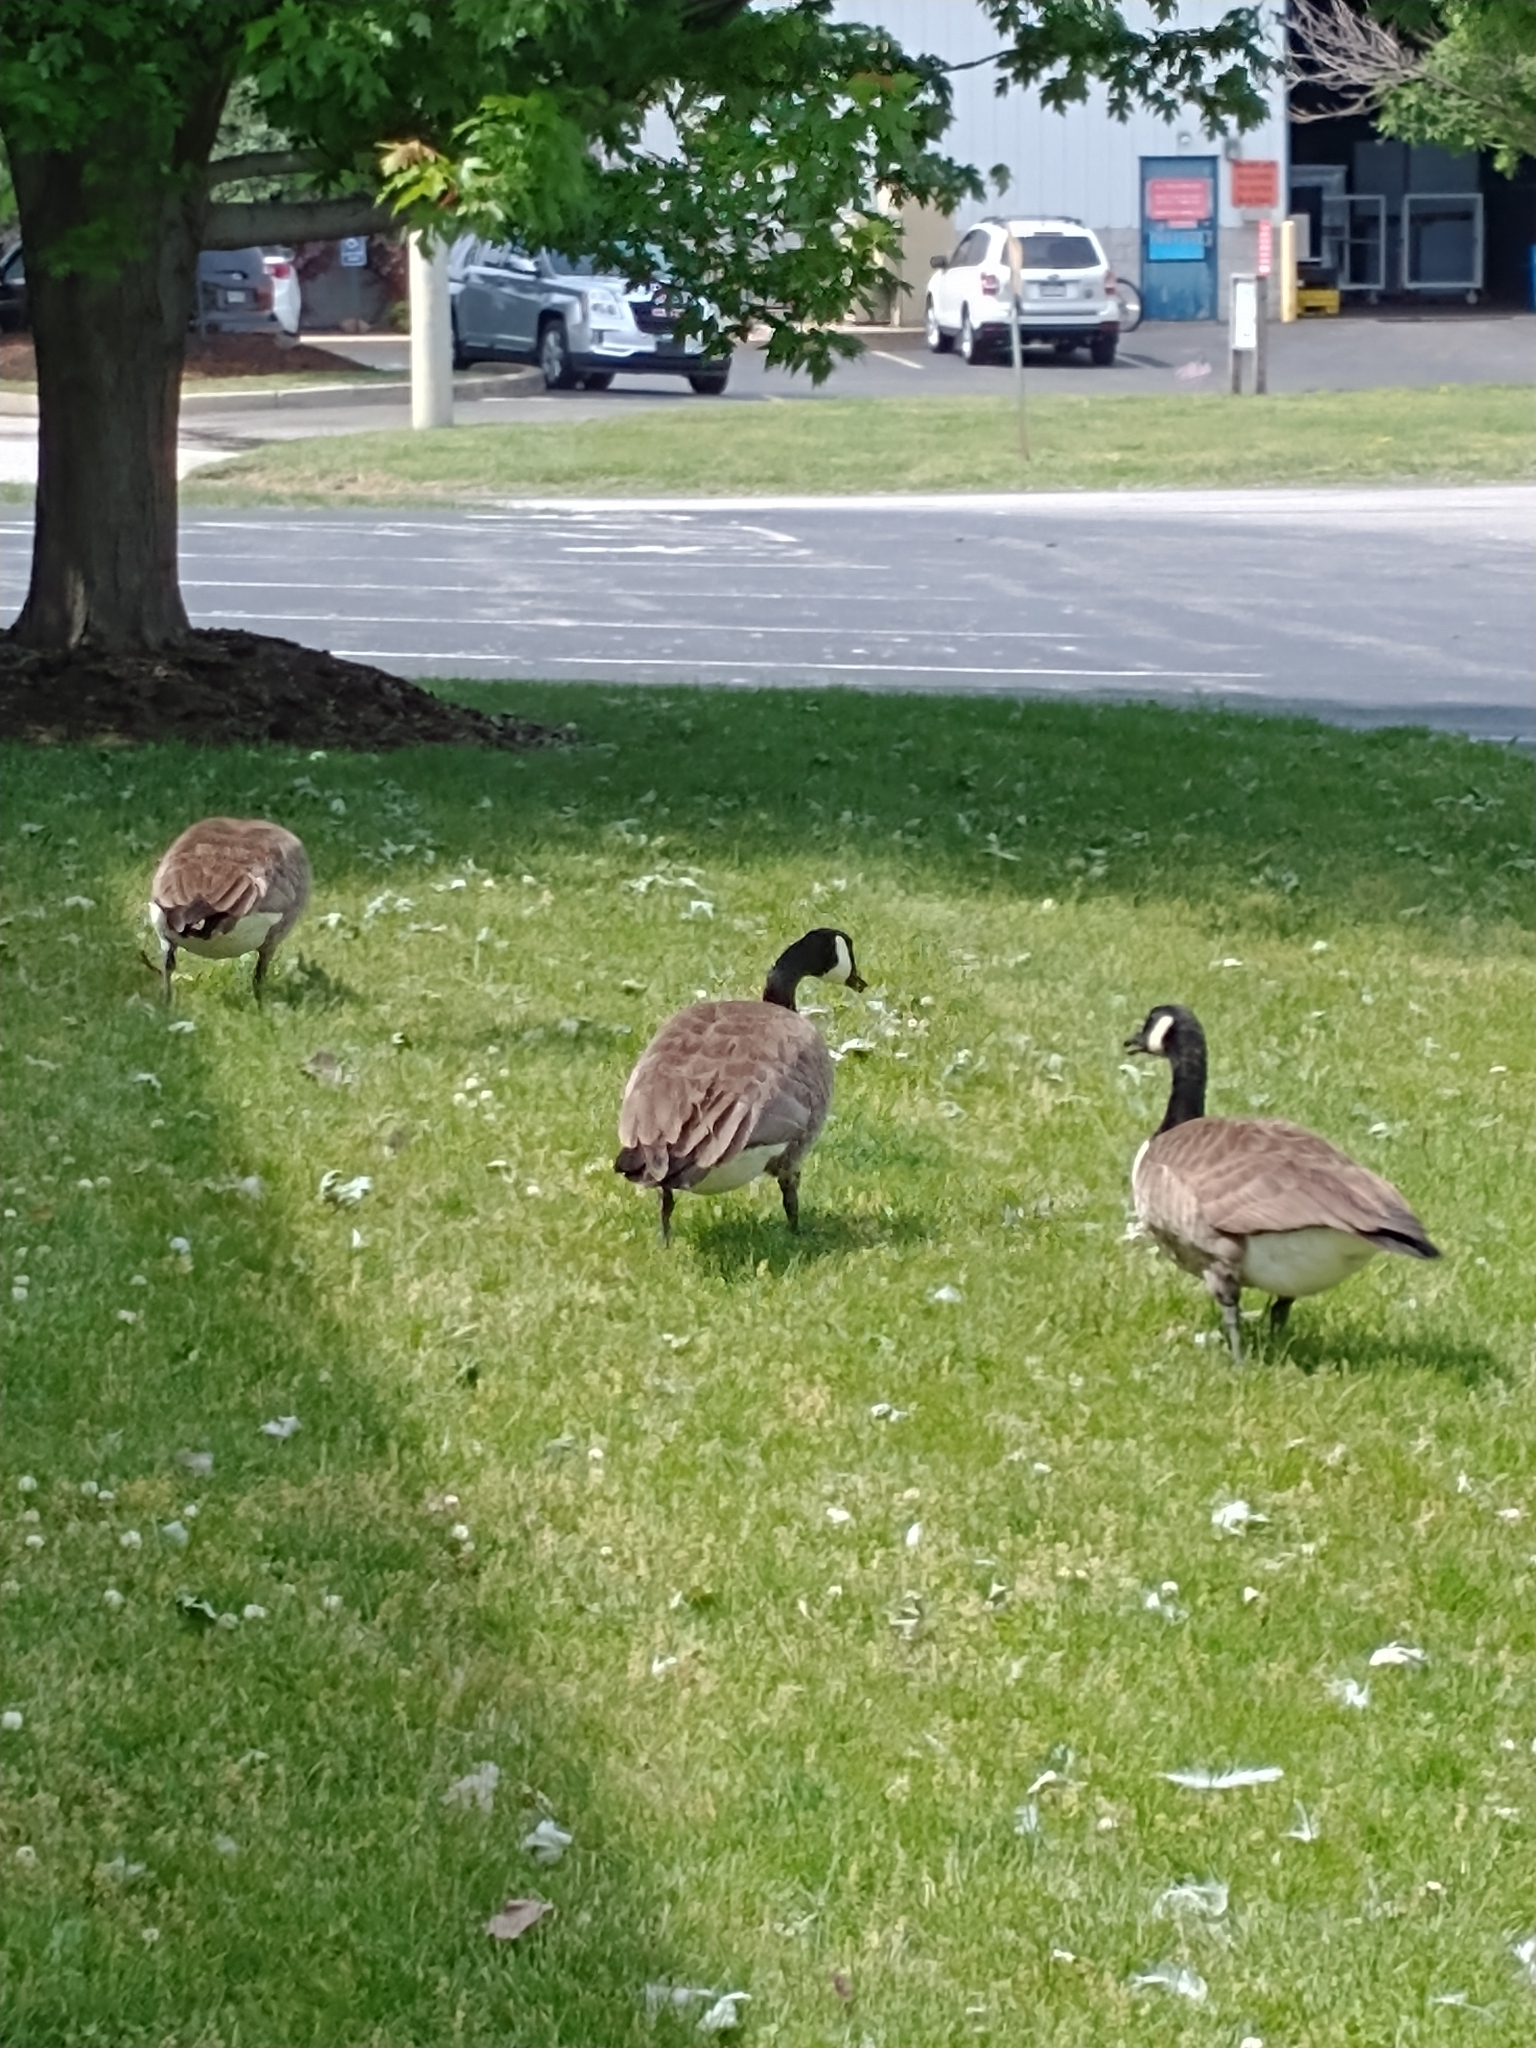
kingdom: Animalia
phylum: Chordata
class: Aves
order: Anseriformes
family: Anatidae
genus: Branta
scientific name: Branta canadensis
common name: Canada goose
